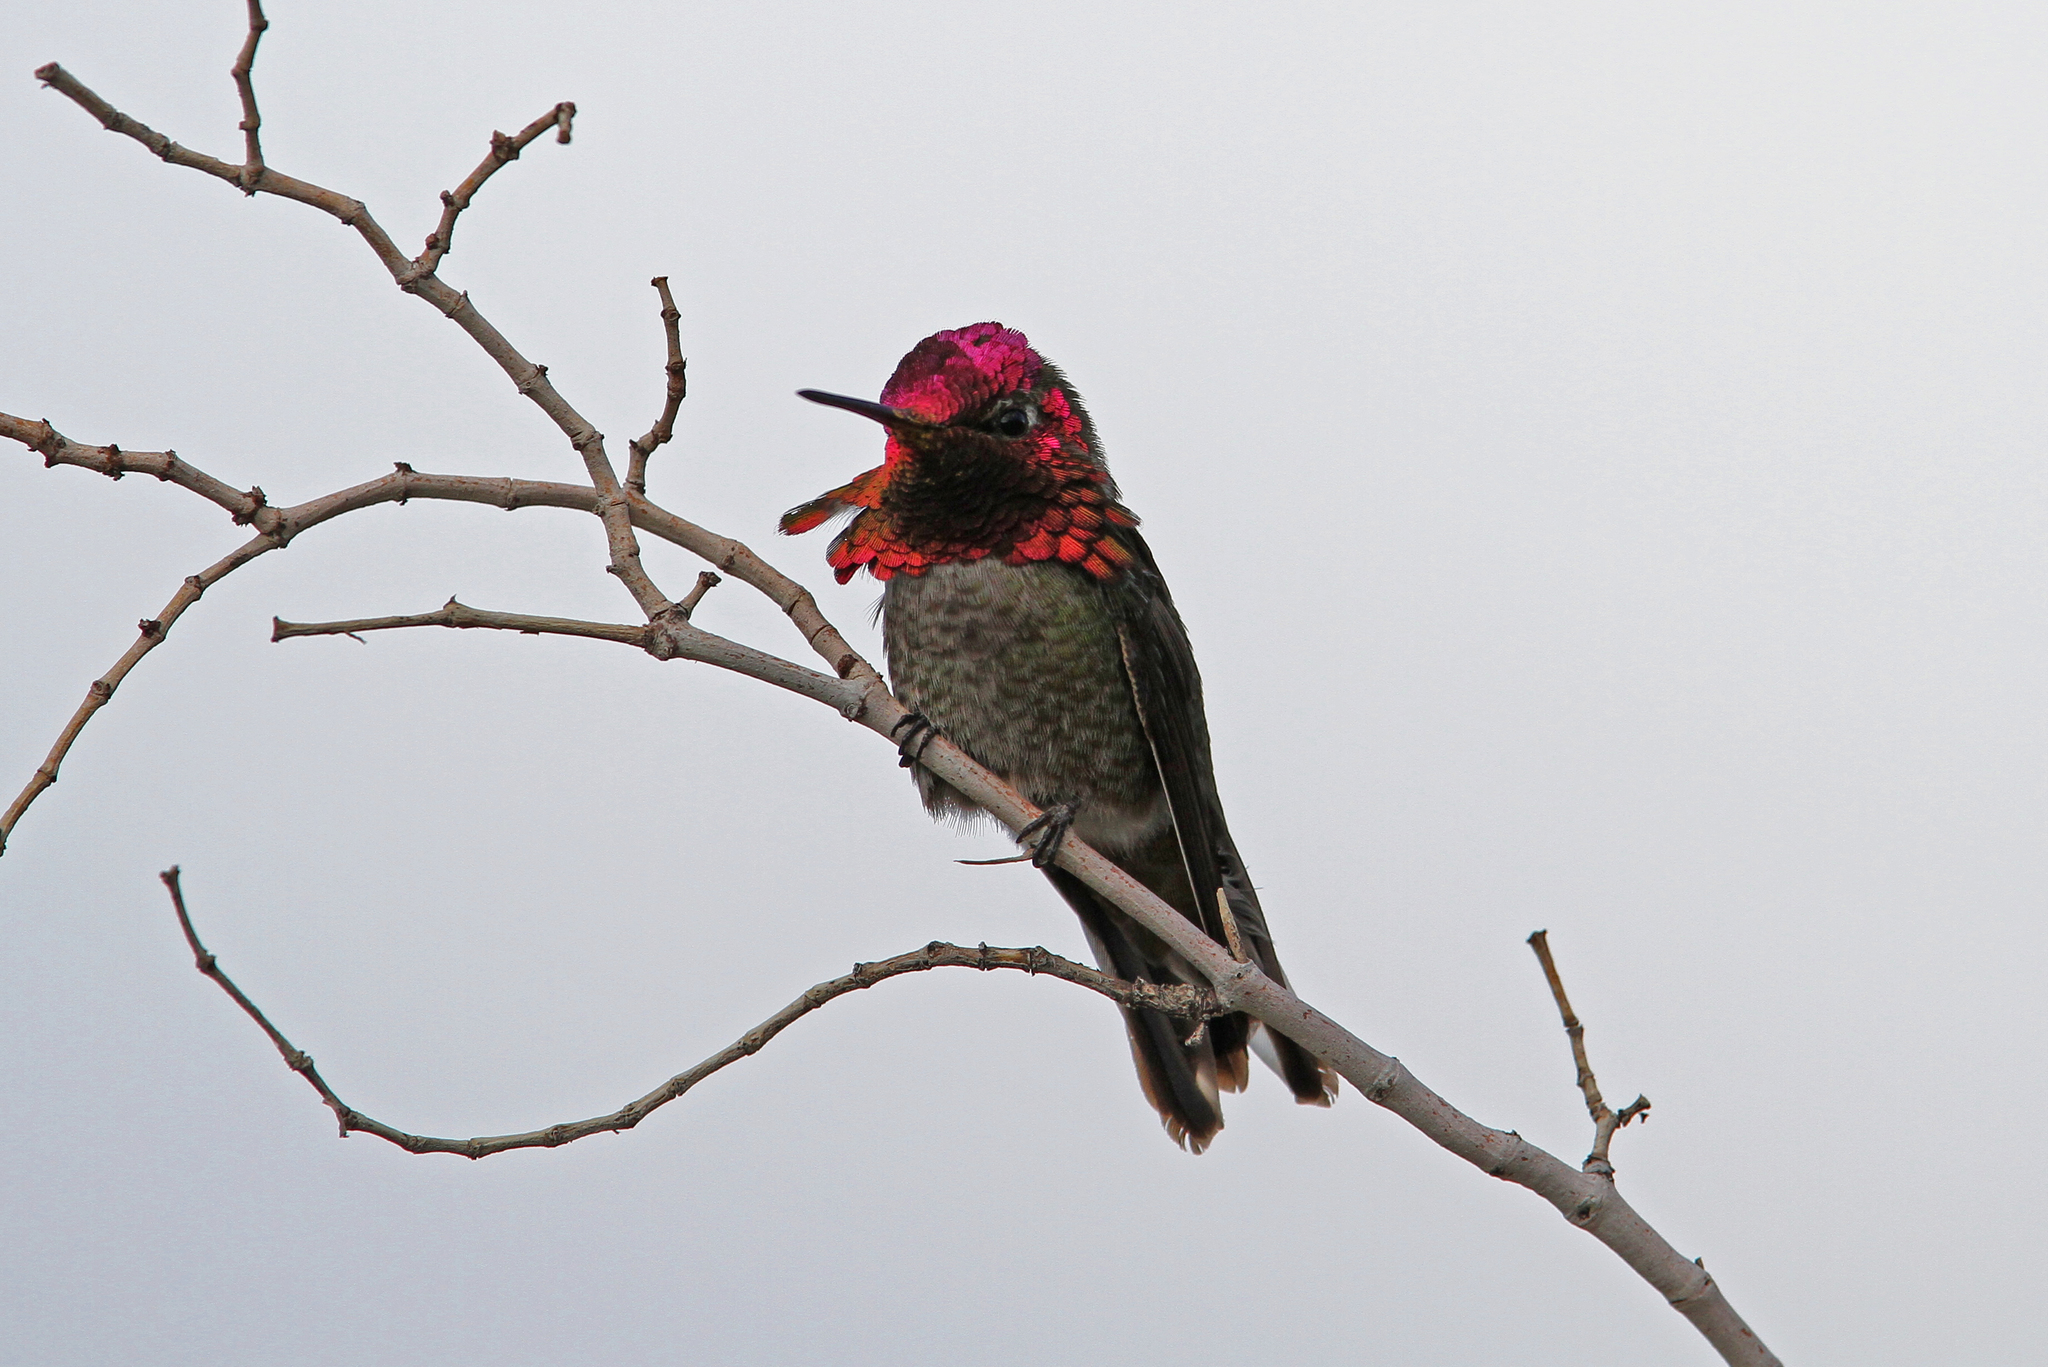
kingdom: Animalia
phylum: Chordata
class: Aves
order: Apodiformes
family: Trochilidae
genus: Calypte
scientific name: Calypte anna
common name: Anna's hummingbird
